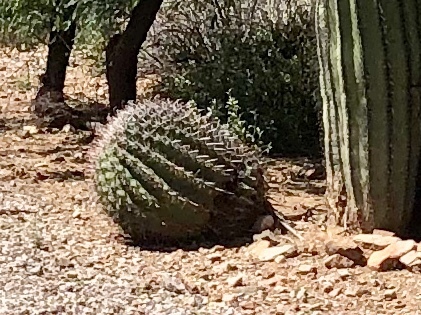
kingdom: Plantae
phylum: Tracheophyta
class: Magnoliopsida
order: Caryophyllales
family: Cactaceae
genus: Ferocactus
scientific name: Ferocactus wislizeni
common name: Candy barrel cactus
